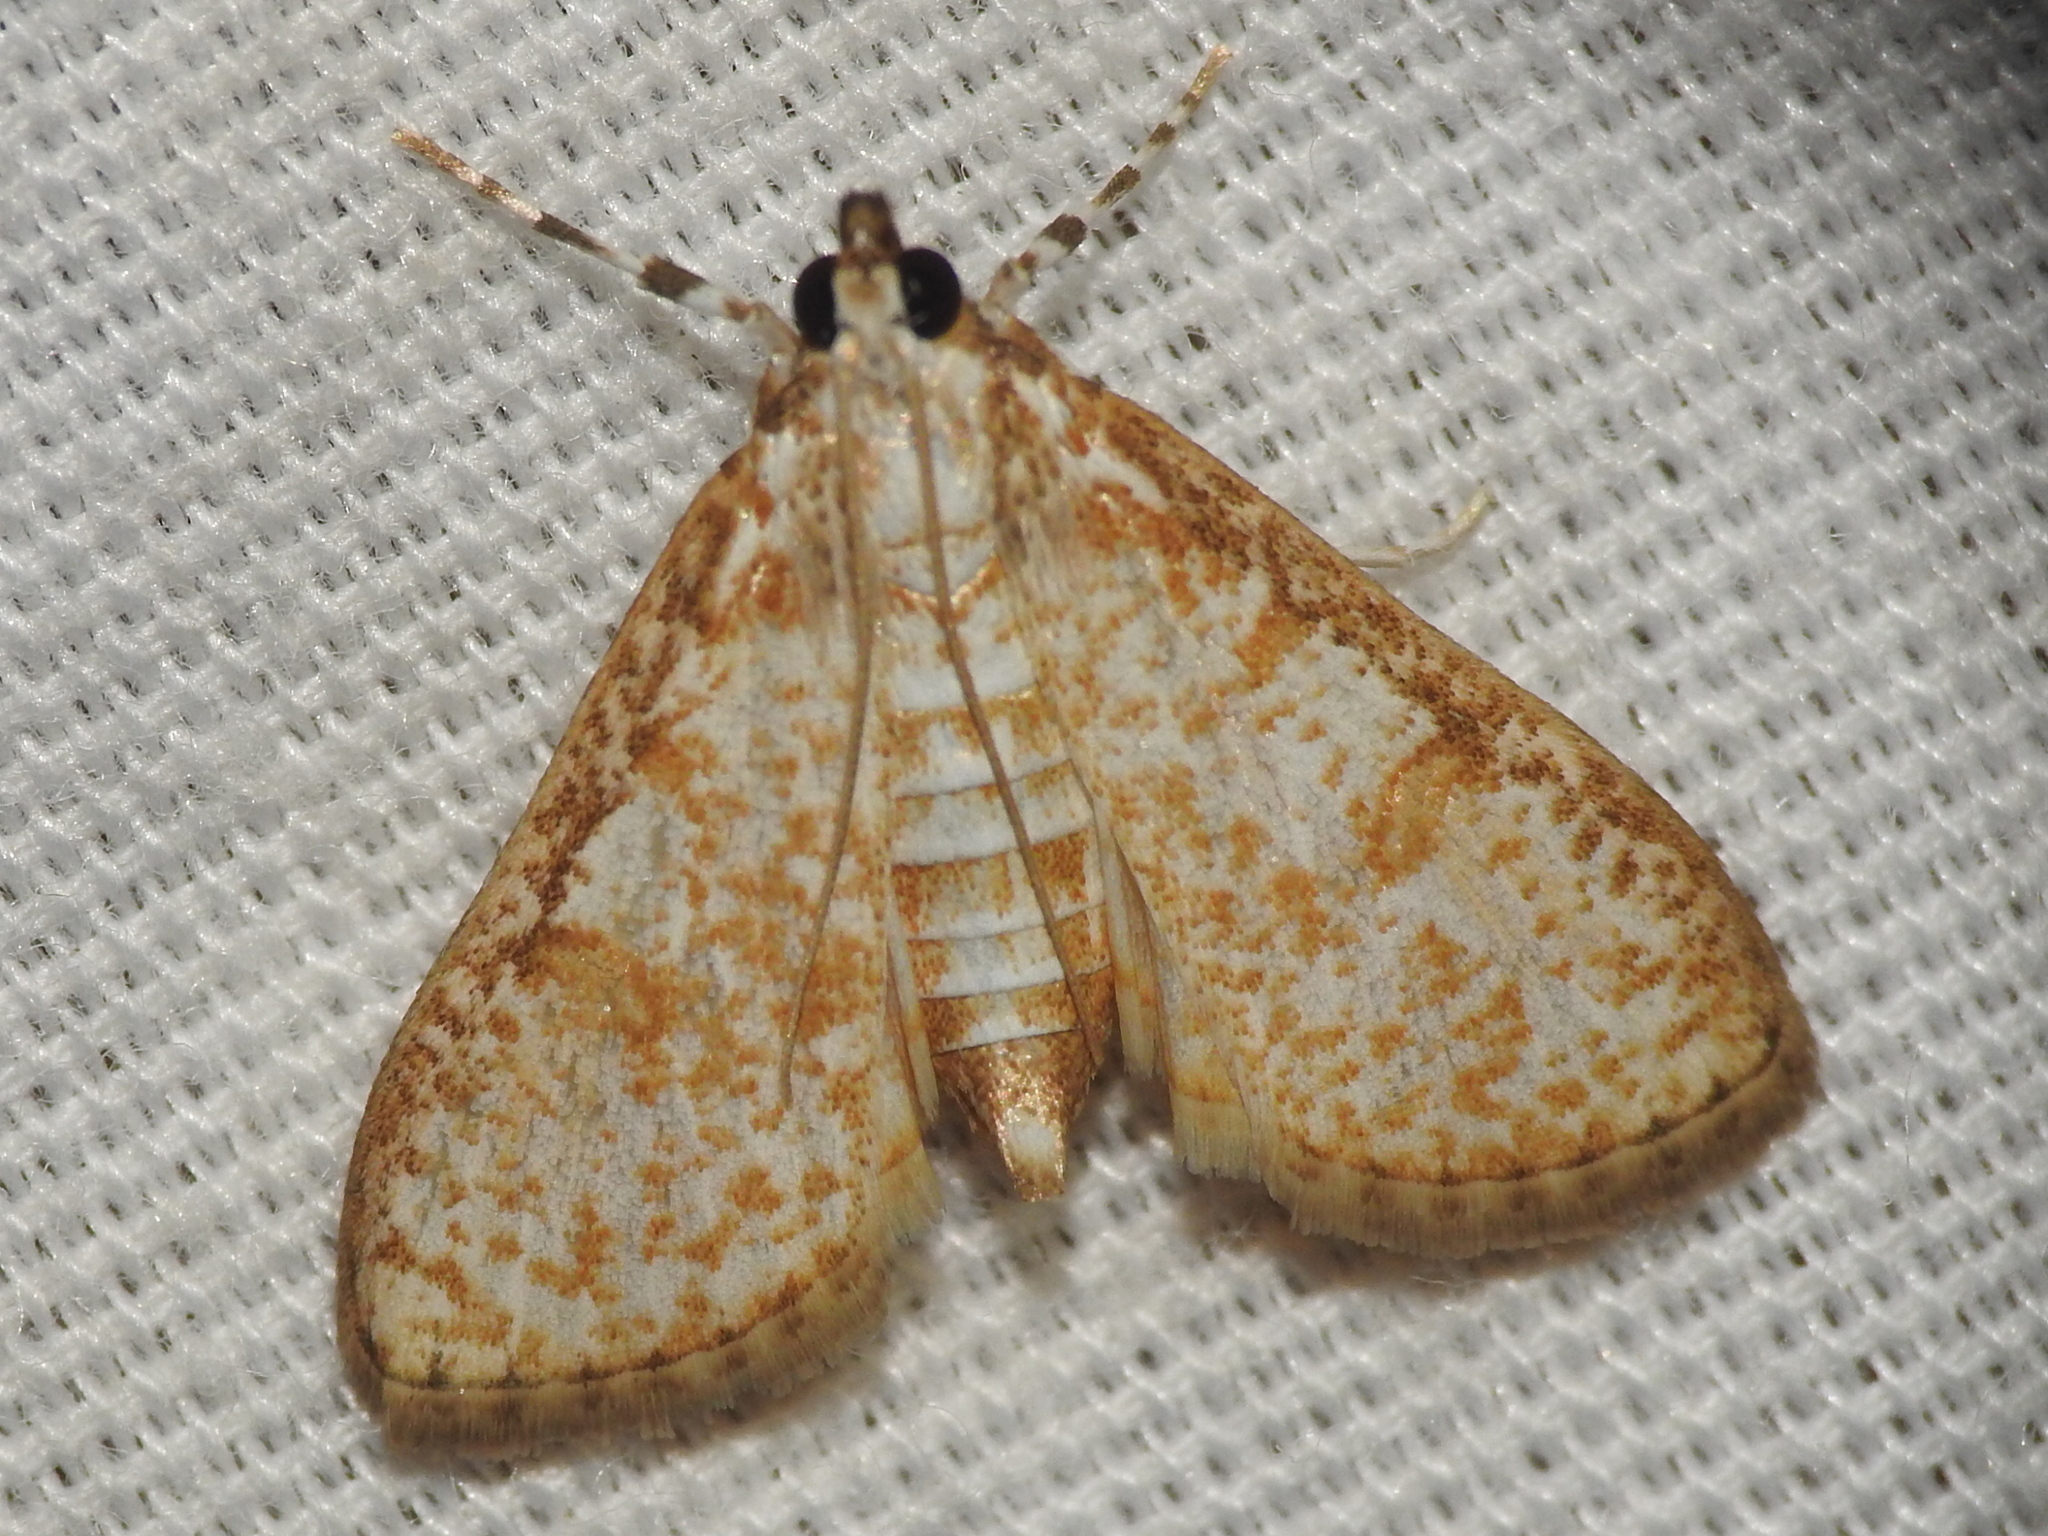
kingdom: Animalia
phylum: Arthropoda
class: Insecta
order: Lepidoptera
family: Crambidae
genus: Palpita
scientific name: Palpita freemanalis
